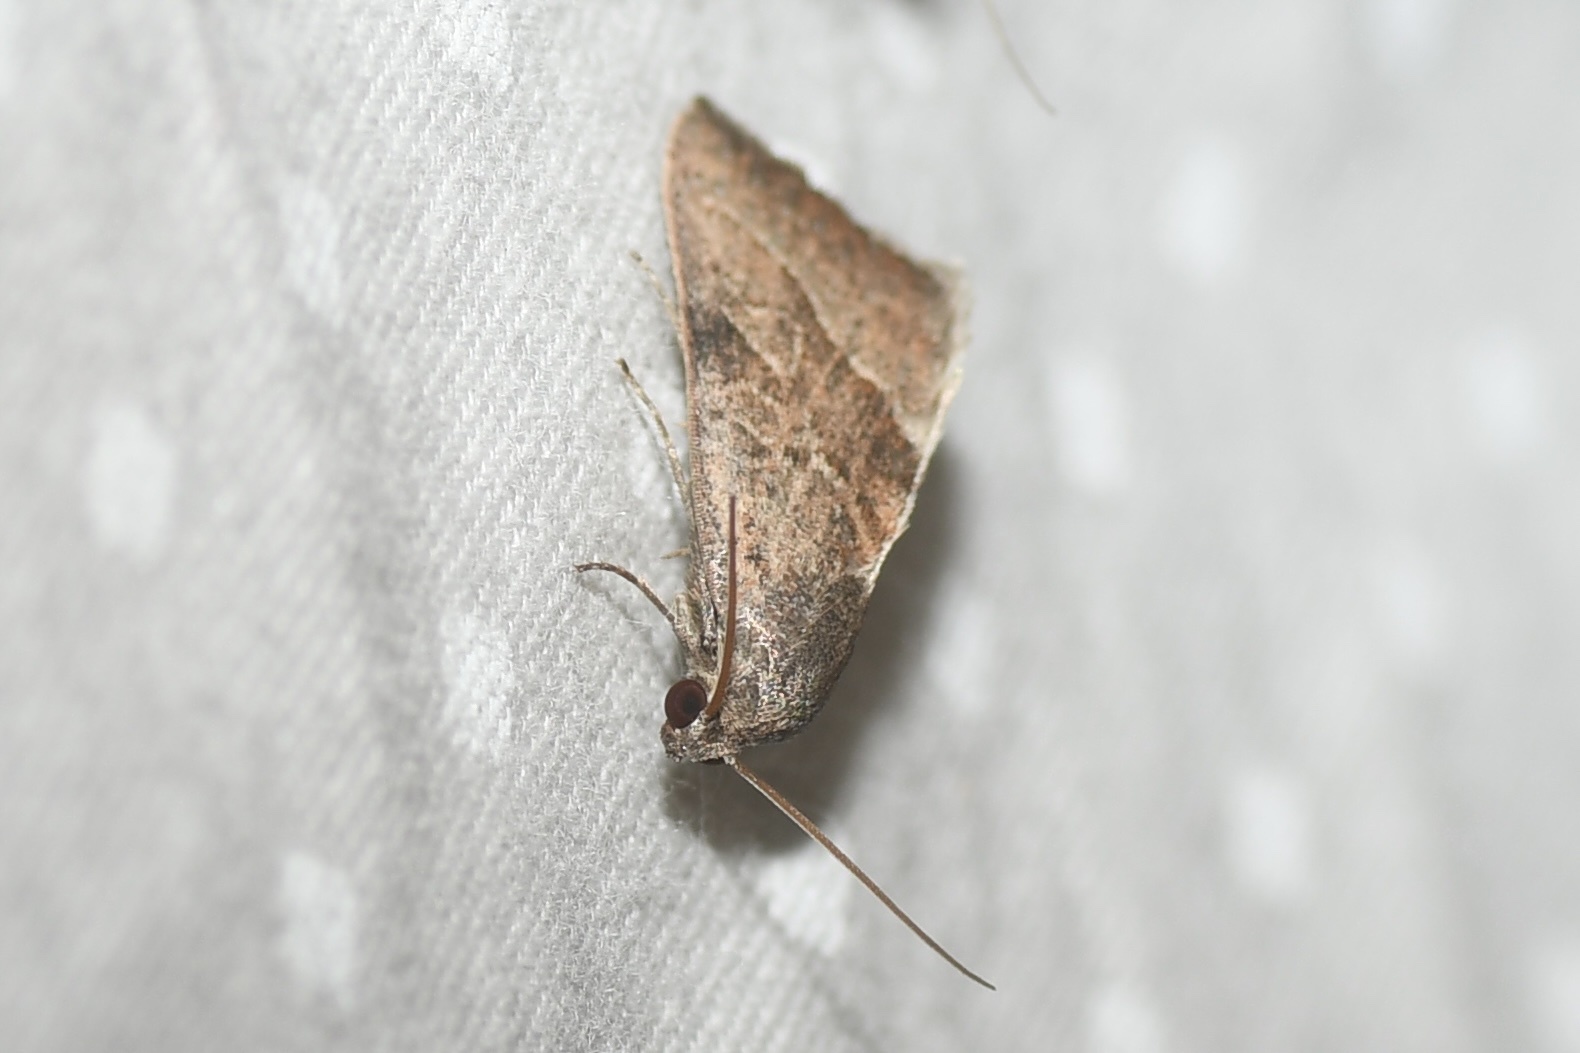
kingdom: Animalia
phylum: Arthropoda
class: Insecta
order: Lepidoptera
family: Noctuidae
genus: Galgula
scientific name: Galgula partita
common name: Wedgeling
